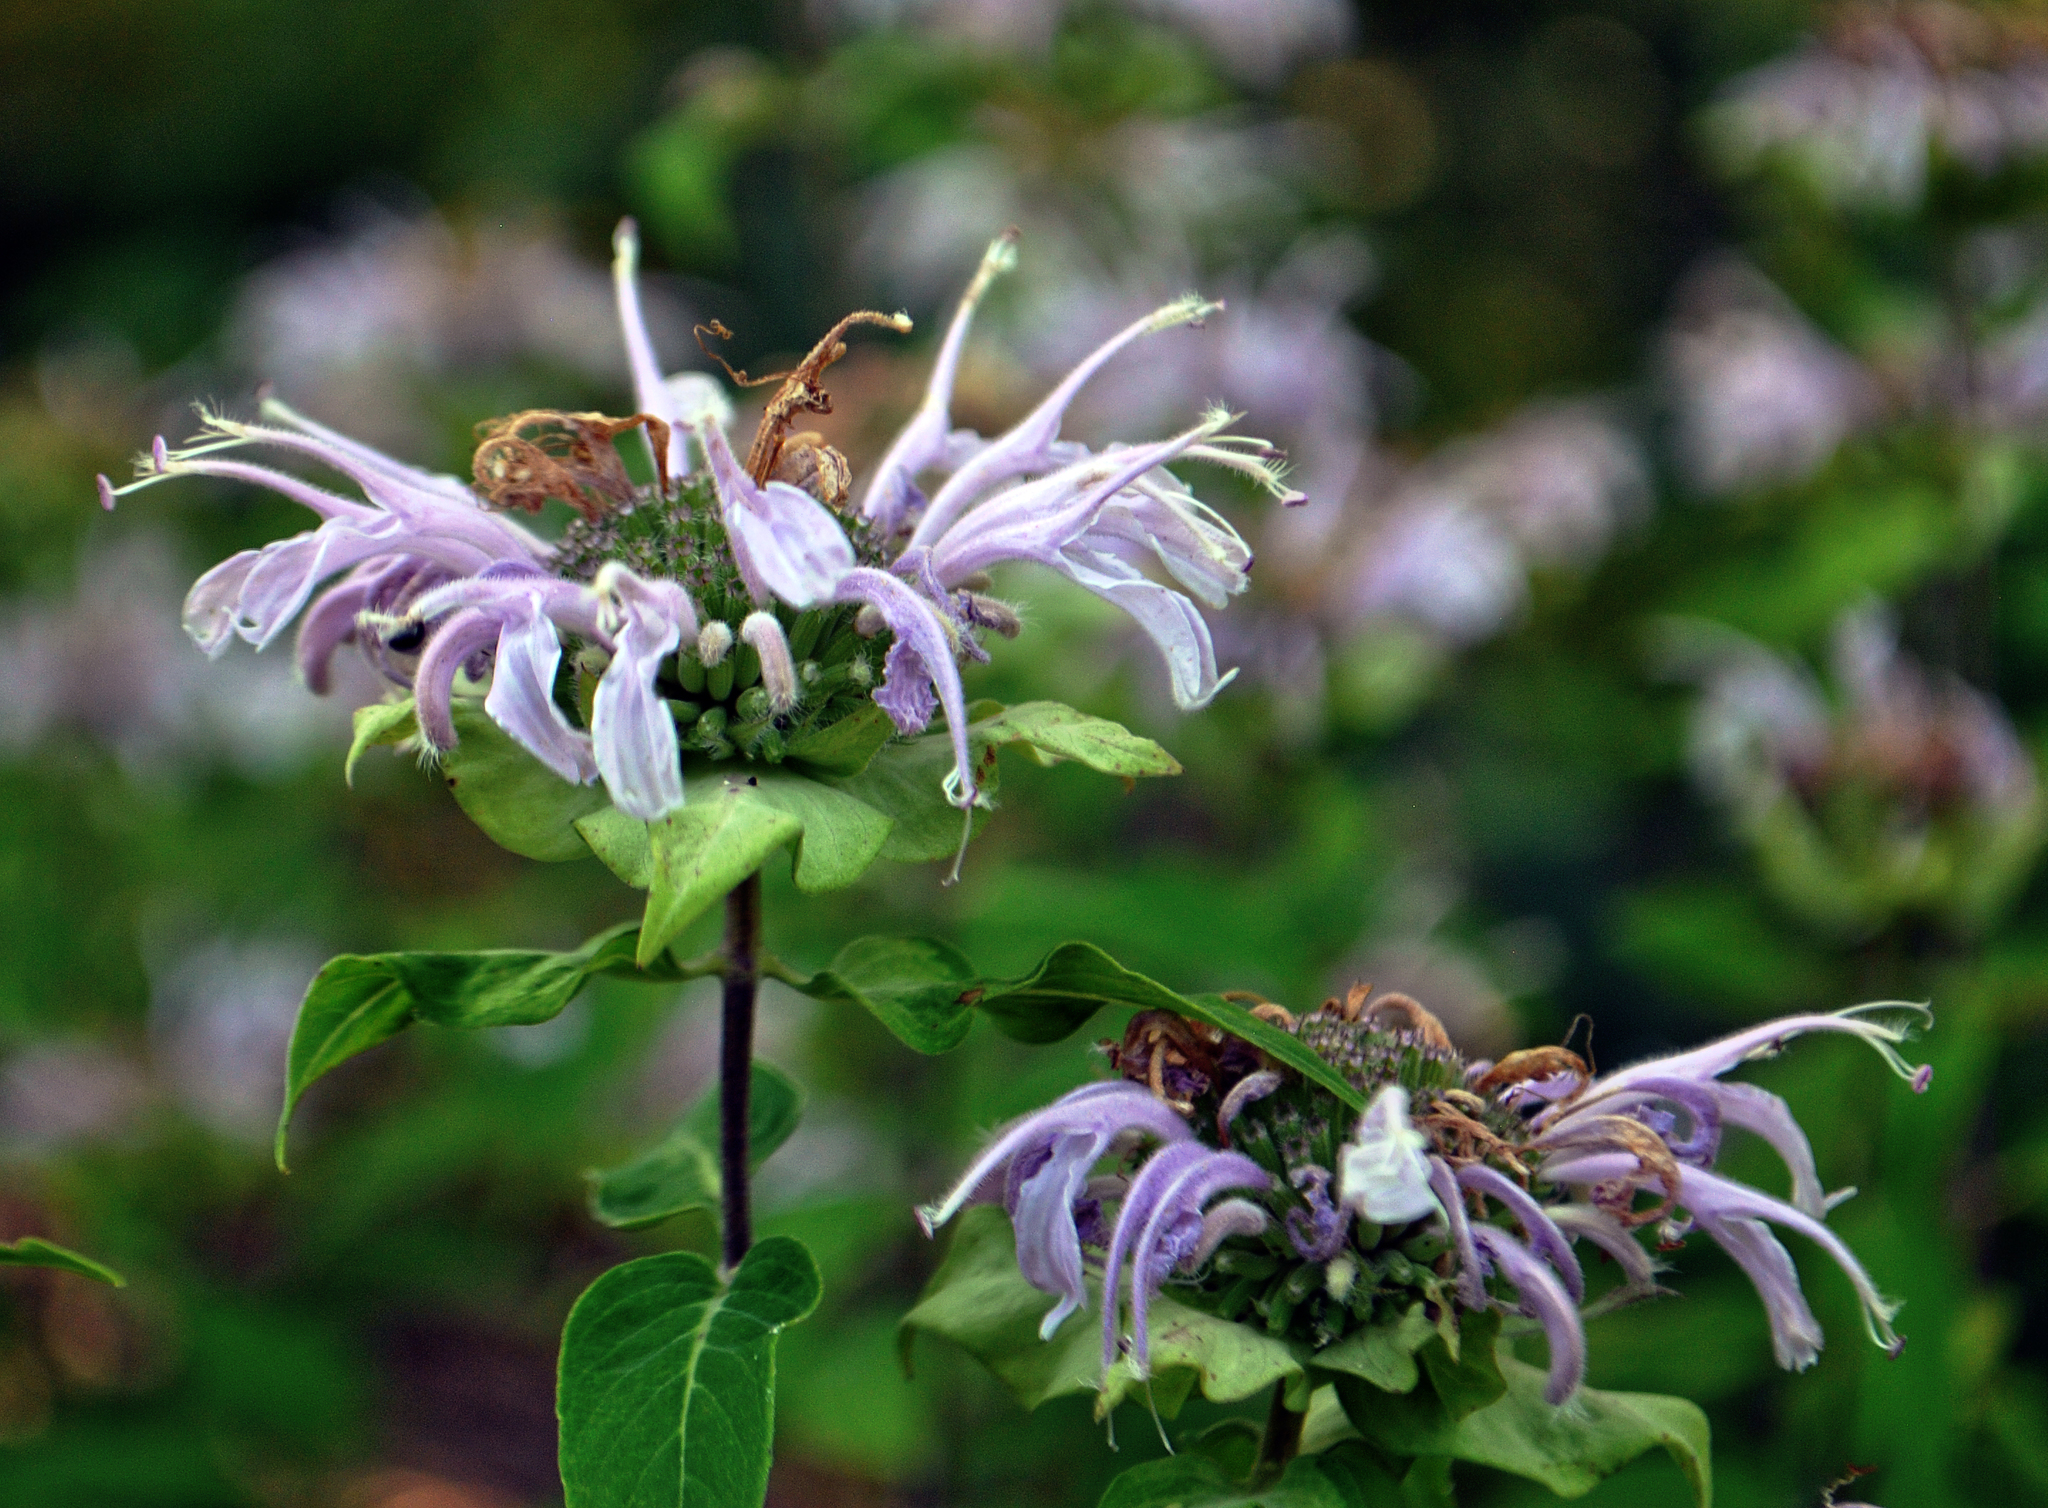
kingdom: Plantae
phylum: Tracheophyta
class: Magnoliopsida
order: Lamiales
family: Lamiaceae
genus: Monarda
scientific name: Monarda fistulosa
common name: Purple beebalm
